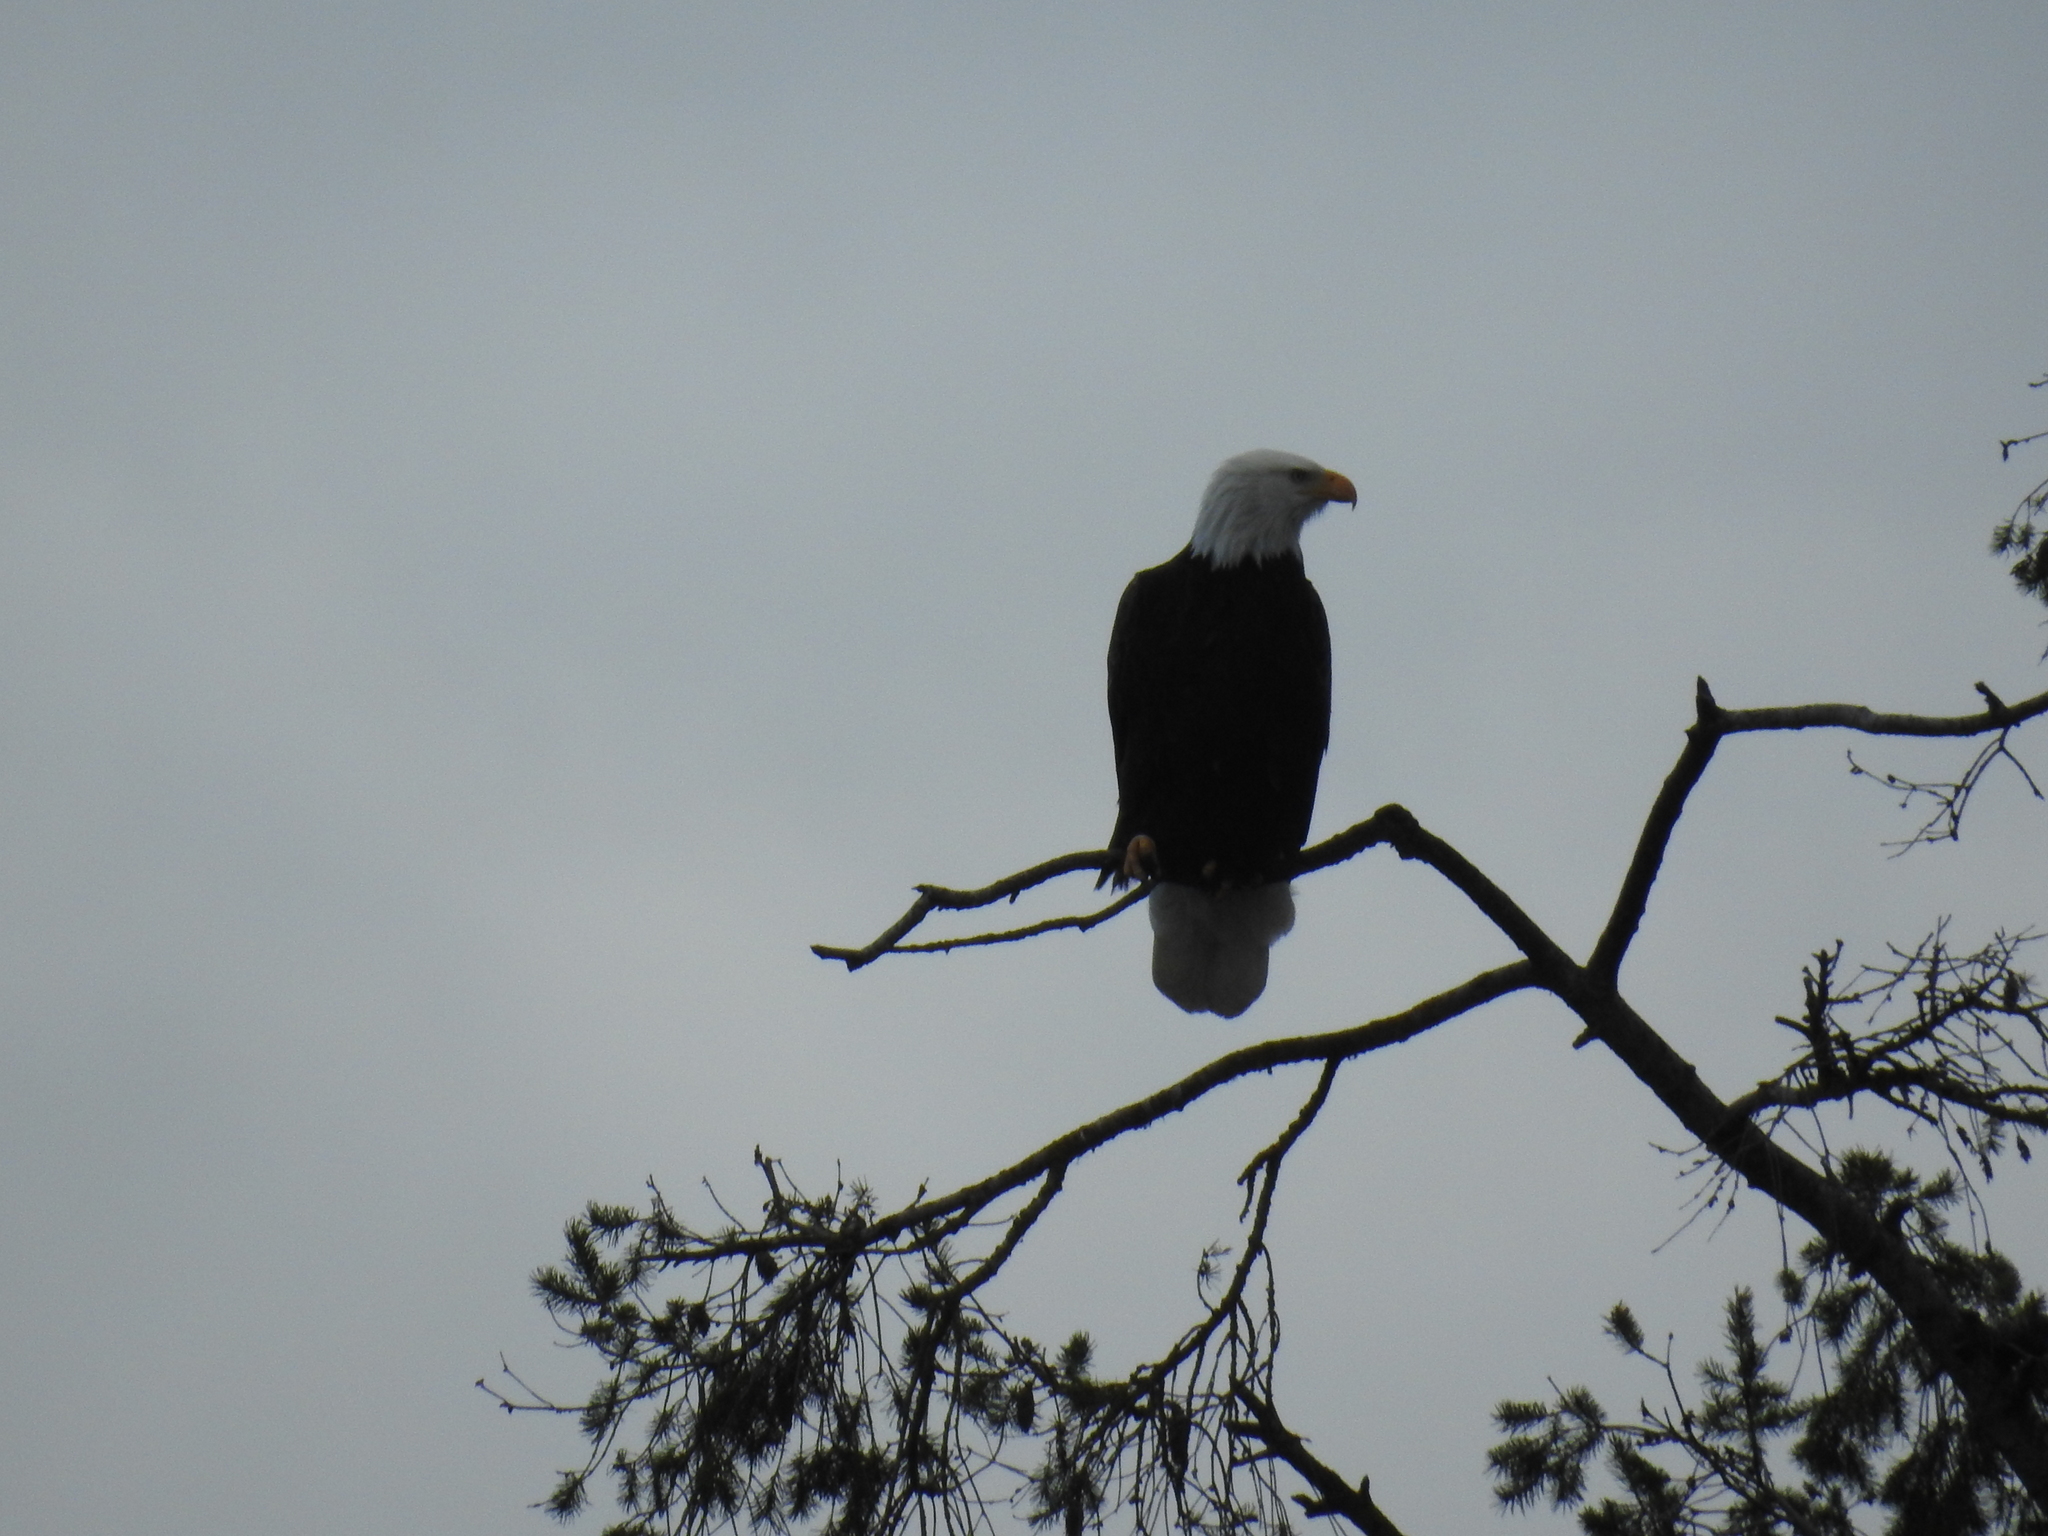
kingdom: Animalia
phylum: Chordata
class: Aves
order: Accipitriformes
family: Accipitridae
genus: Haliaeetus
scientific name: Haliaeetus leucocephalus
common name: Bald eagle
